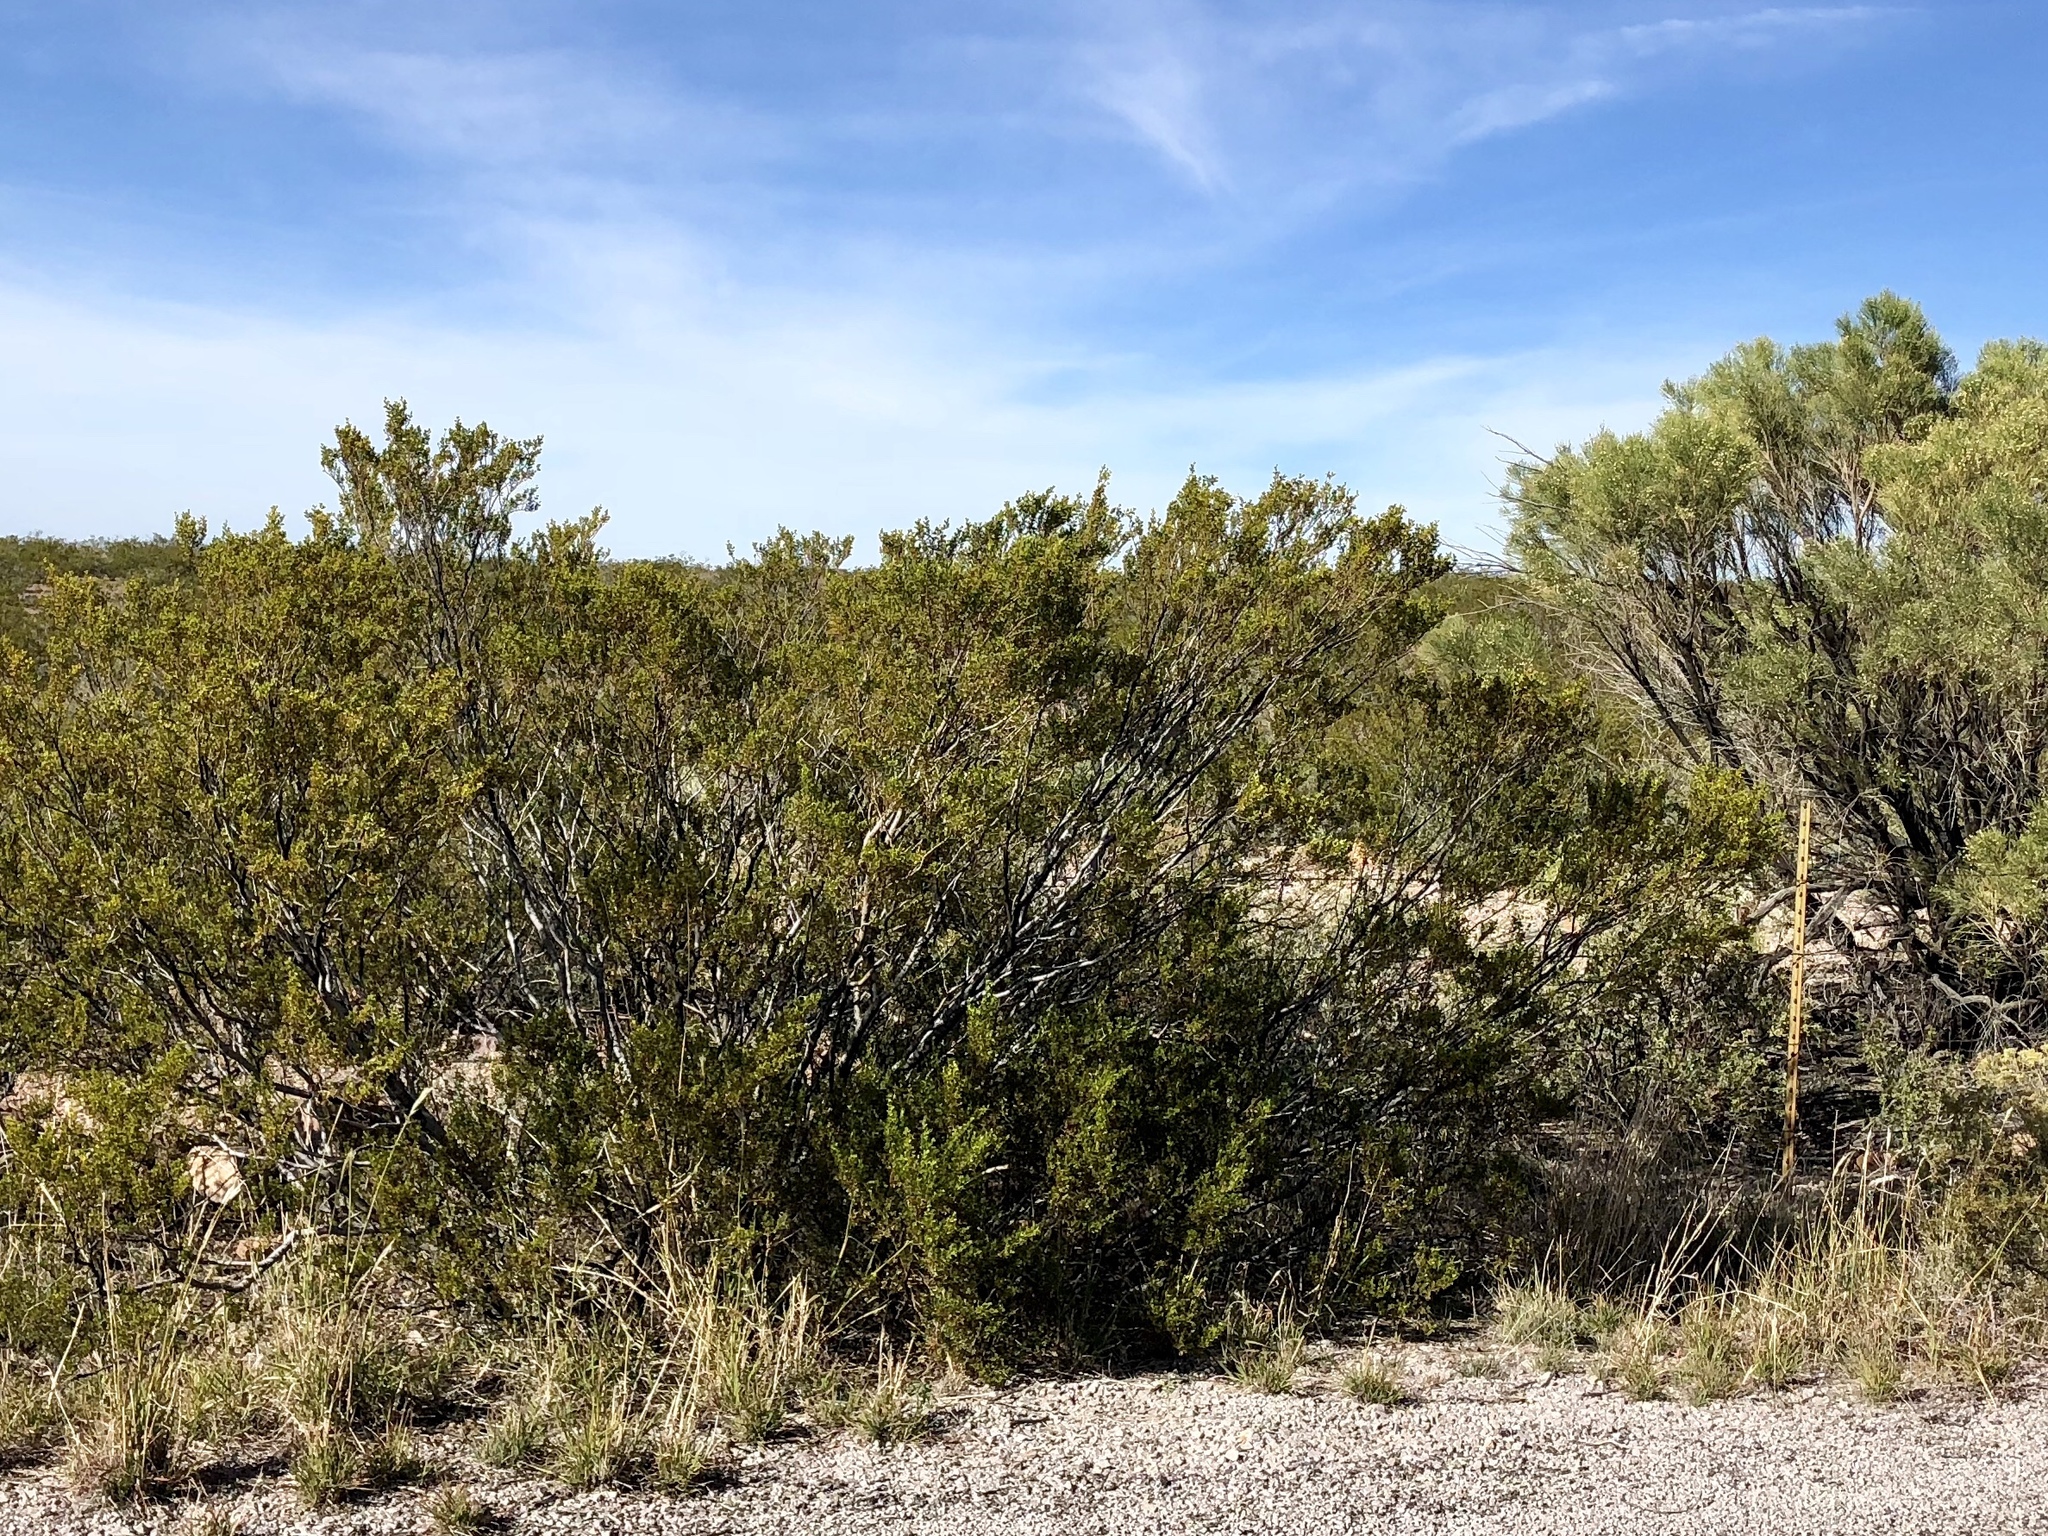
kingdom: Plantae
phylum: Tracheophyta
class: Magnoliopsida
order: Zygophyllales
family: Zygophyllaceae
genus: Larrea
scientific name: Larrea tridentata
